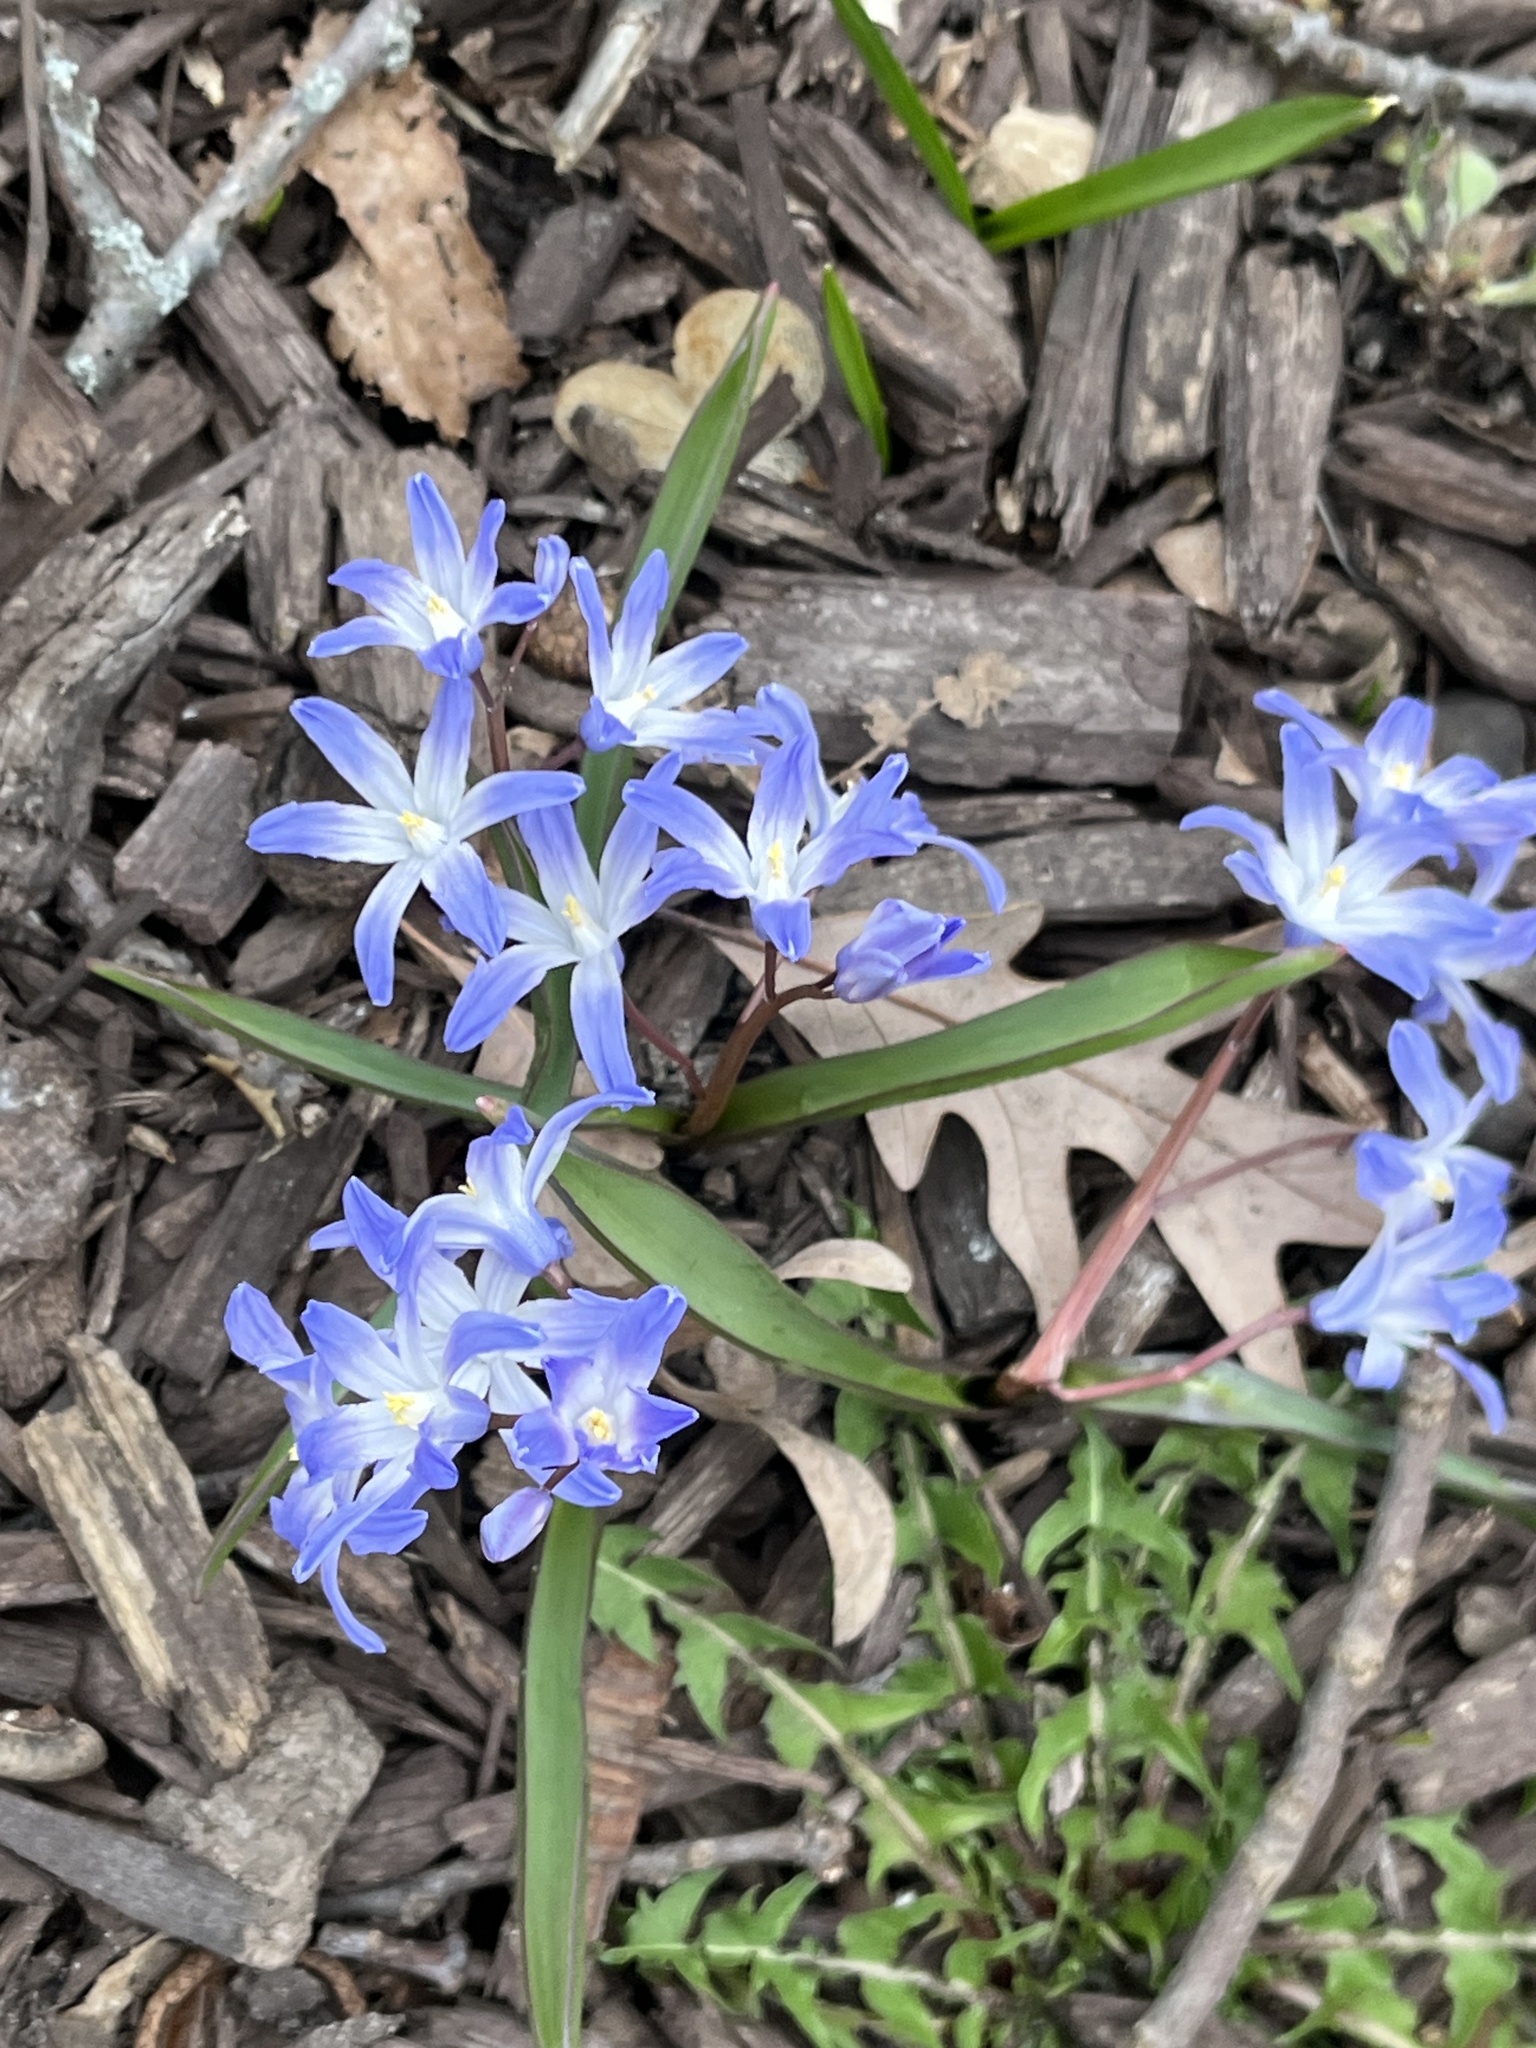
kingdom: Plantae
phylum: Tracheophyta
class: Liliopsida
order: Asparagales
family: Asparagaceae
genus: Scilla
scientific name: Scilla forbesii
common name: Glory-of-the-snow
